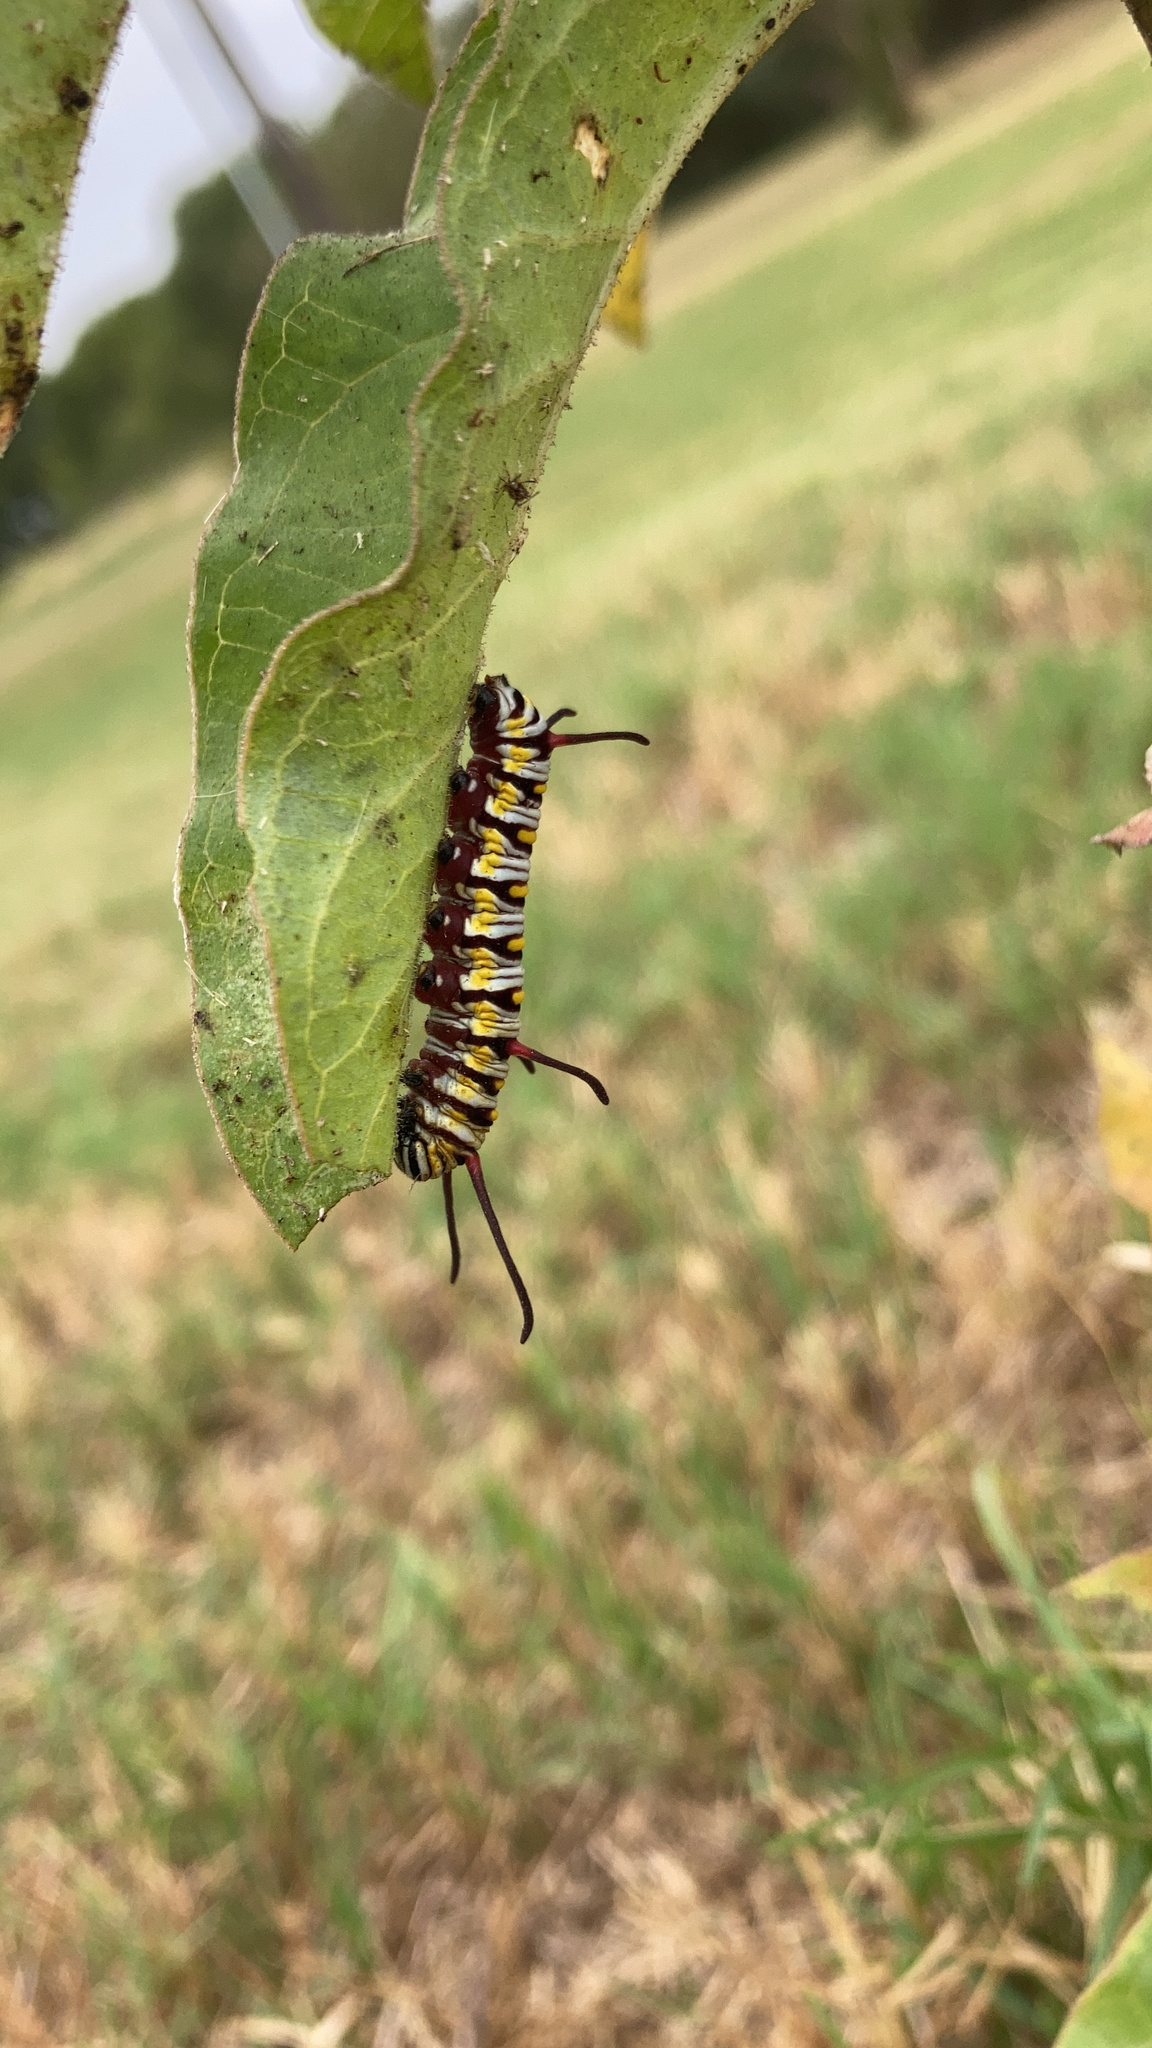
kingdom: Animalia
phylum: Arthropoda
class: Insecta
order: Lepidoptera
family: Nymphalidae
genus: Danaus
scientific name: Danaus gilippus
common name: Queen
